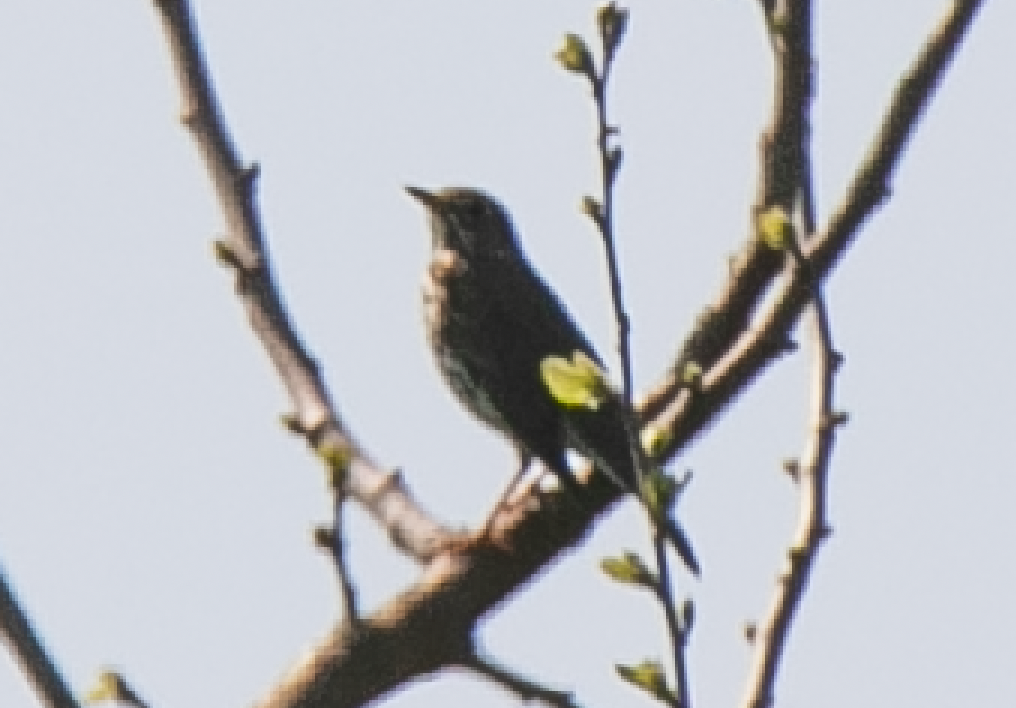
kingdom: Animalia
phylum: Chordata
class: Aves
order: Passeriformes
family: Turdidae
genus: Turdus
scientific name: Turdus philomelos
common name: Song thrush
